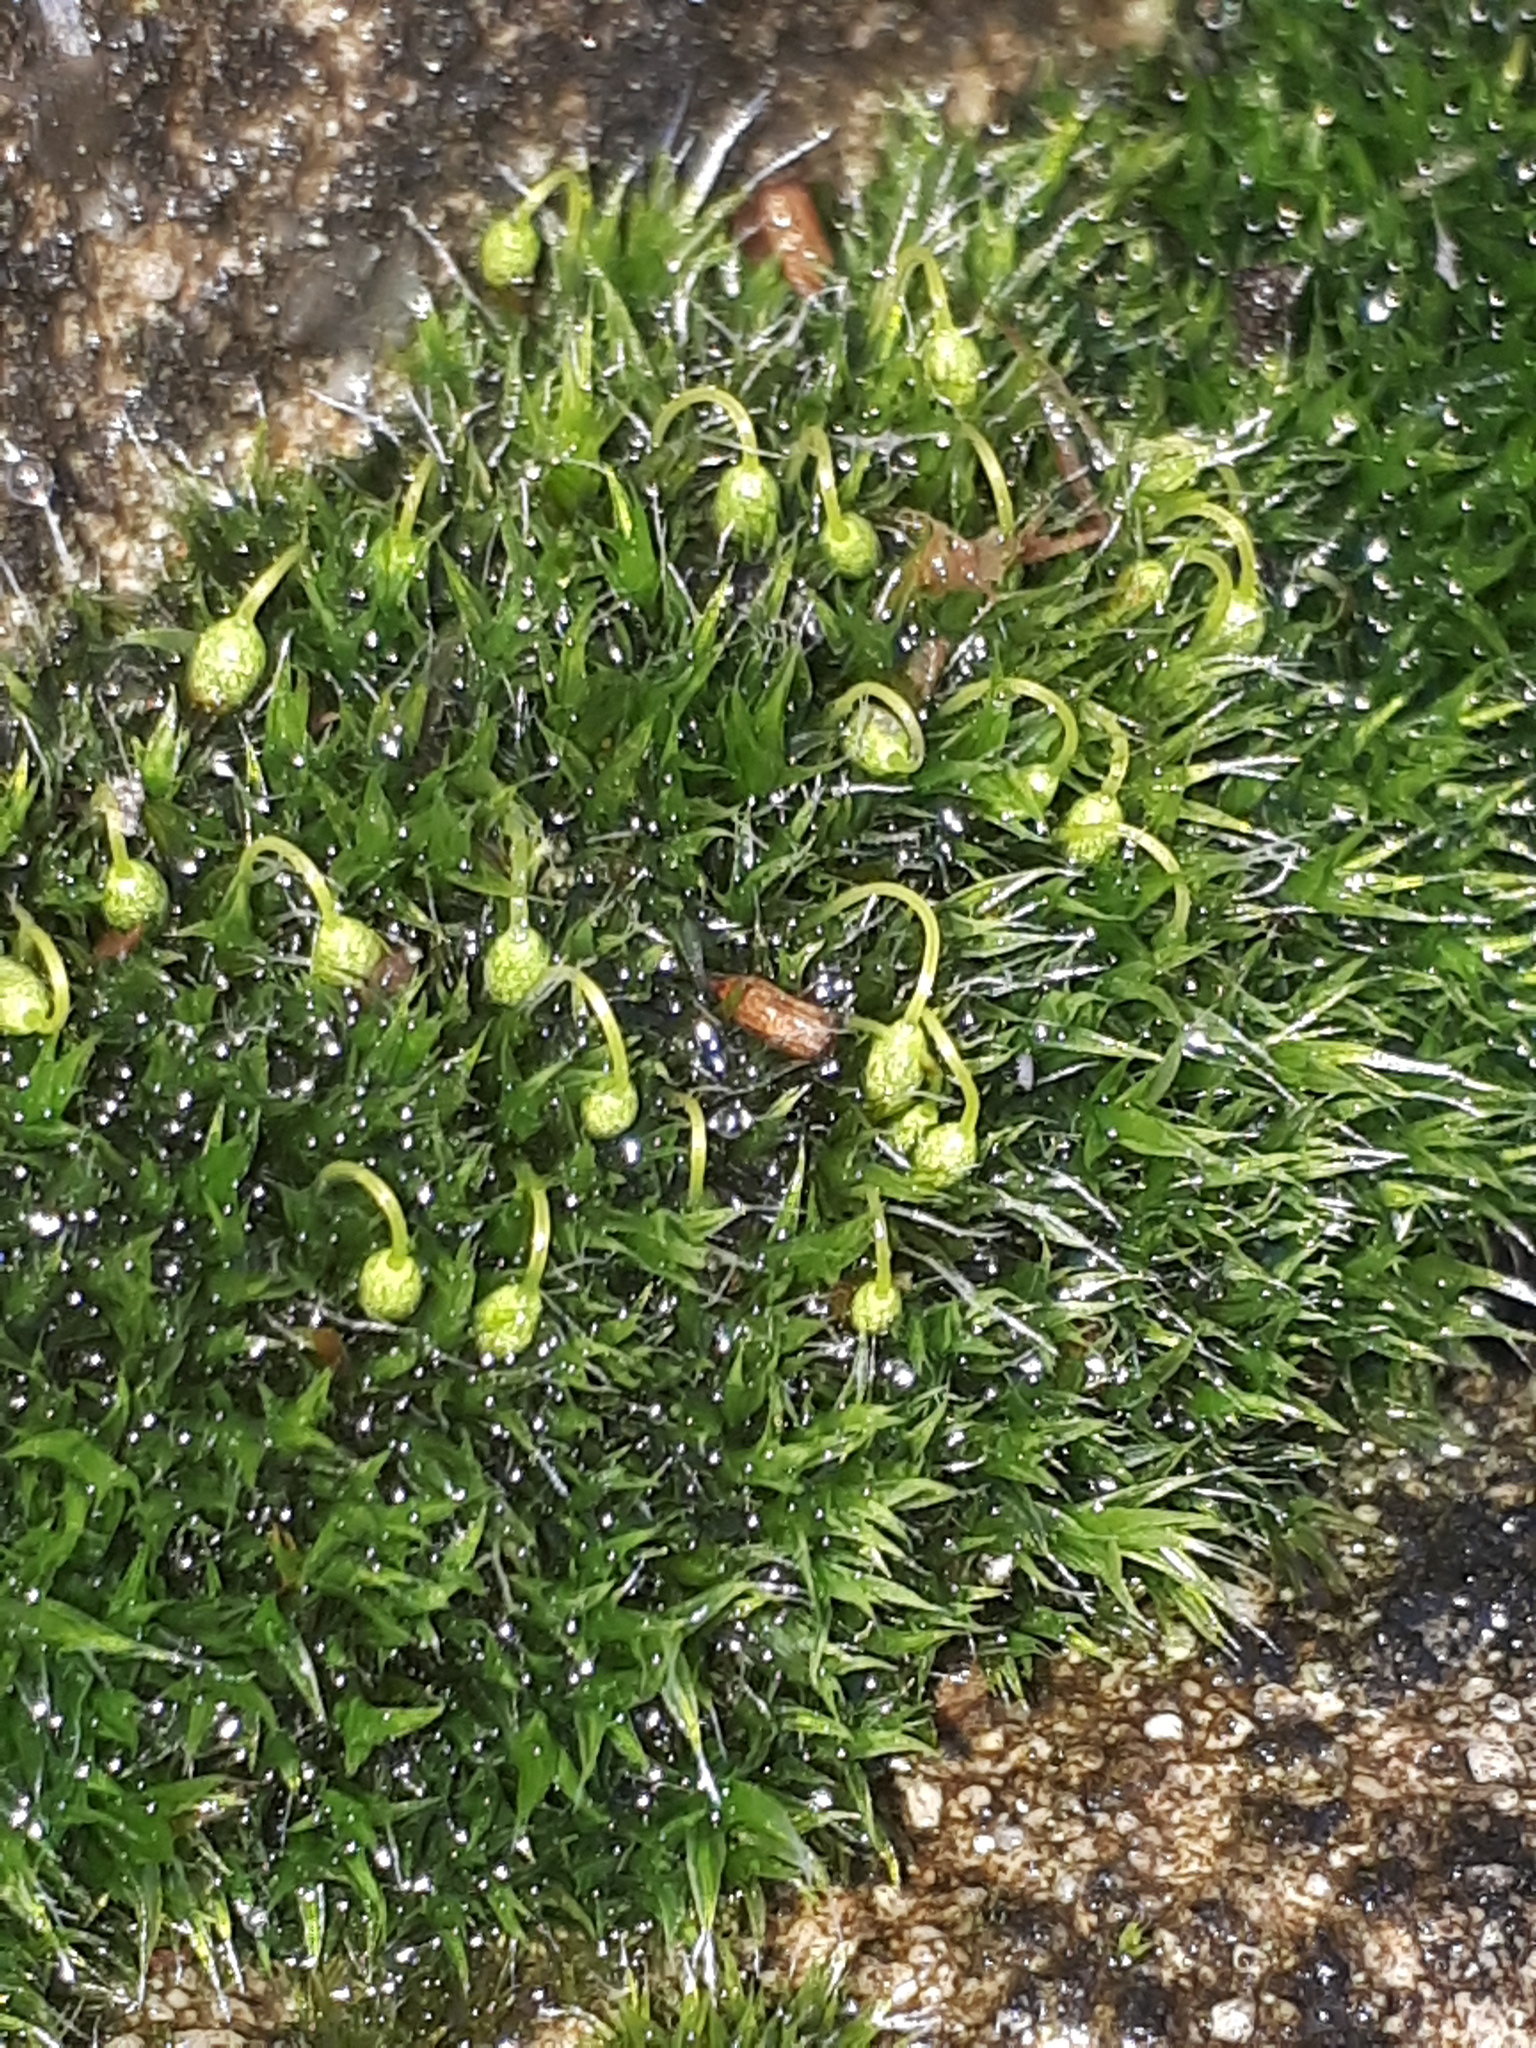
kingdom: Plantae
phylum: Bryophyta
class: Bryopsida
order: Grimmiales
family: Grimmiaceae
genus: Grimmia
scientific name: Grimmia pulvinata
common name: Grey-cushioned grimmia
